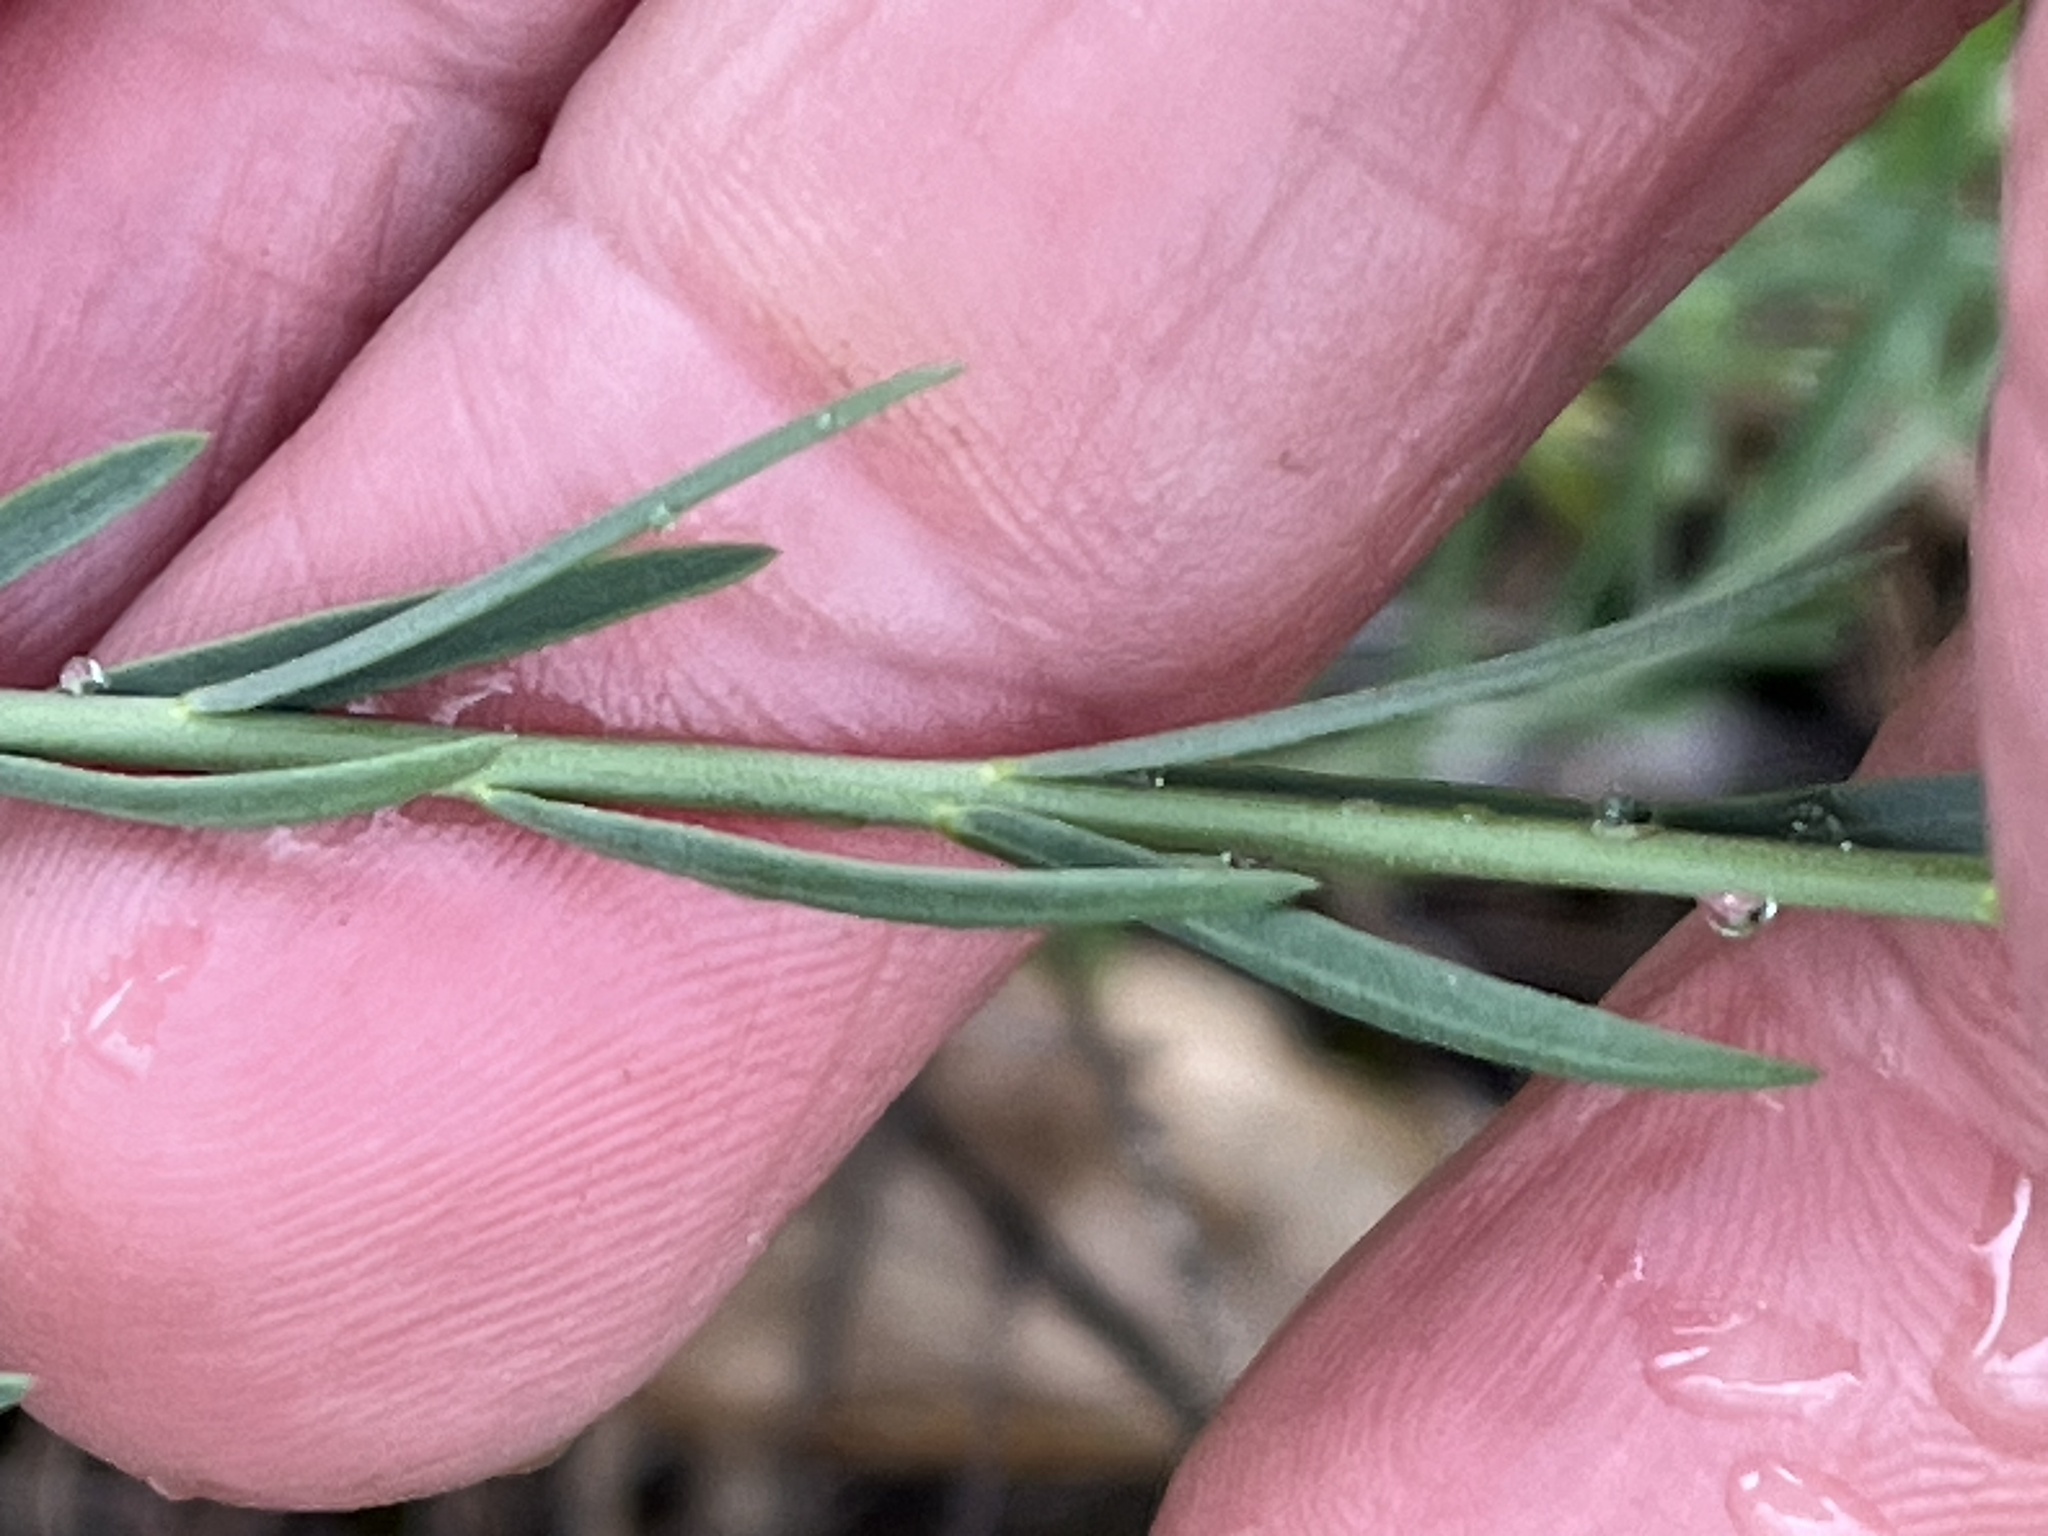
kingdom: Plantae
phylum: Tracheophyta
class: Magnoliopsida
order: Malpighiales
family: Linaceae
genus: Linum
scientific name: Linum lewisii
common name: Prairie flax
